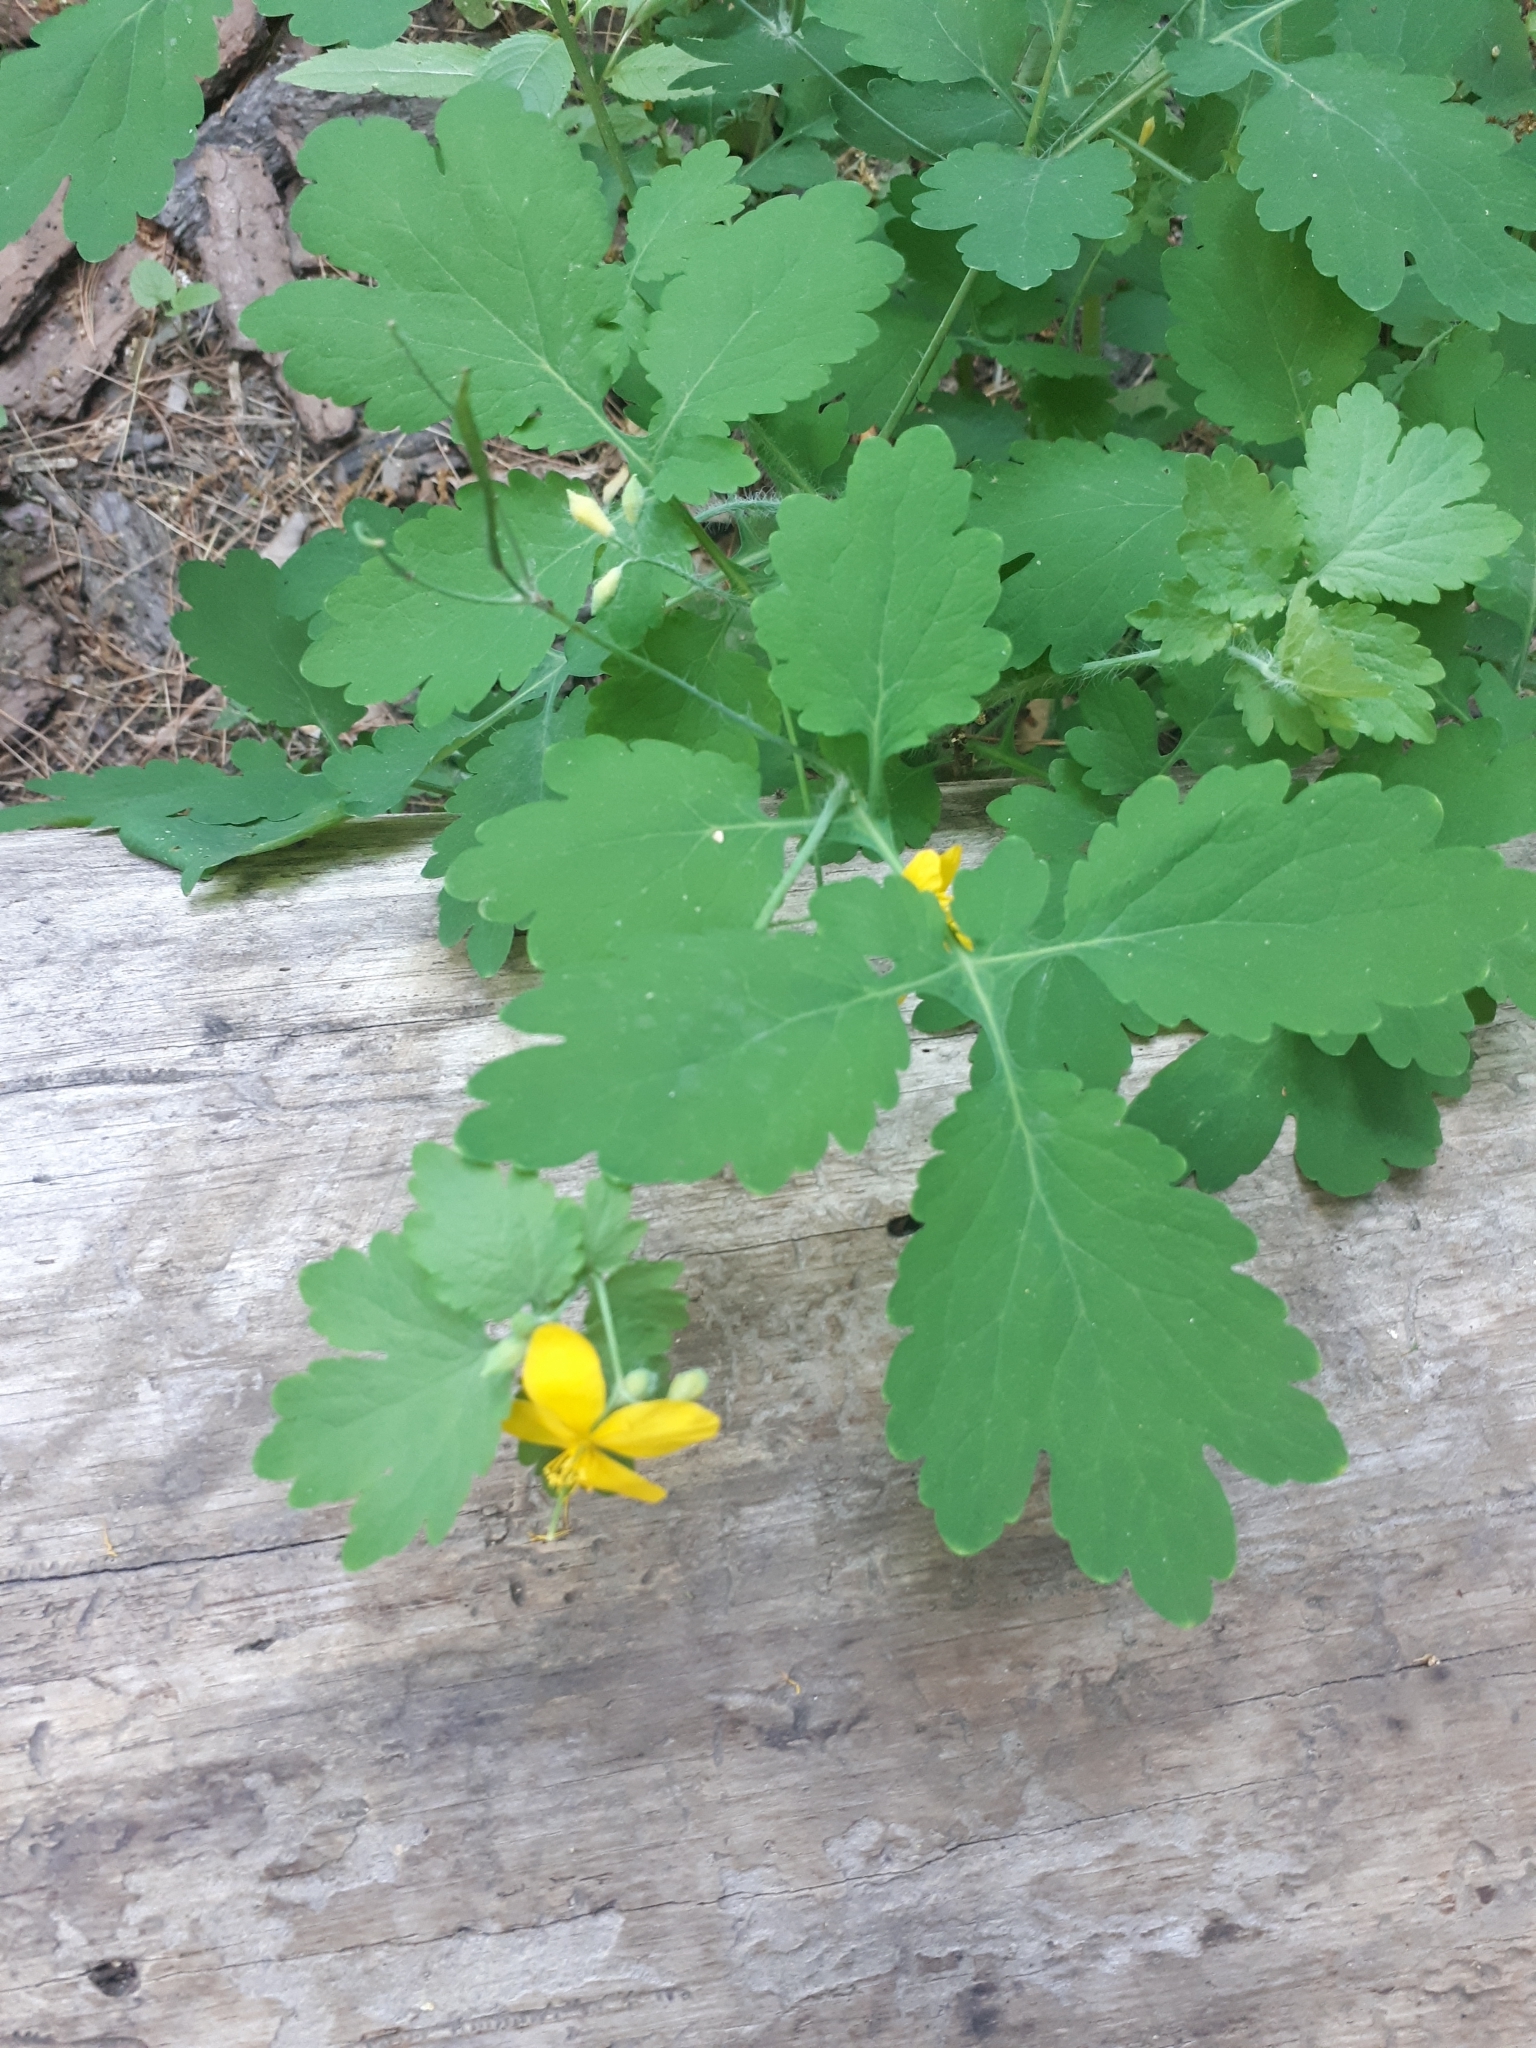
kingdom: Plantae
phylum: Tracheophyta
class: Magnoliopsida
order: Ranunculales
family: Papaveraceae
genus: Chelidonium
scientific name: Chelidonium majus
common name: Greater celandine
